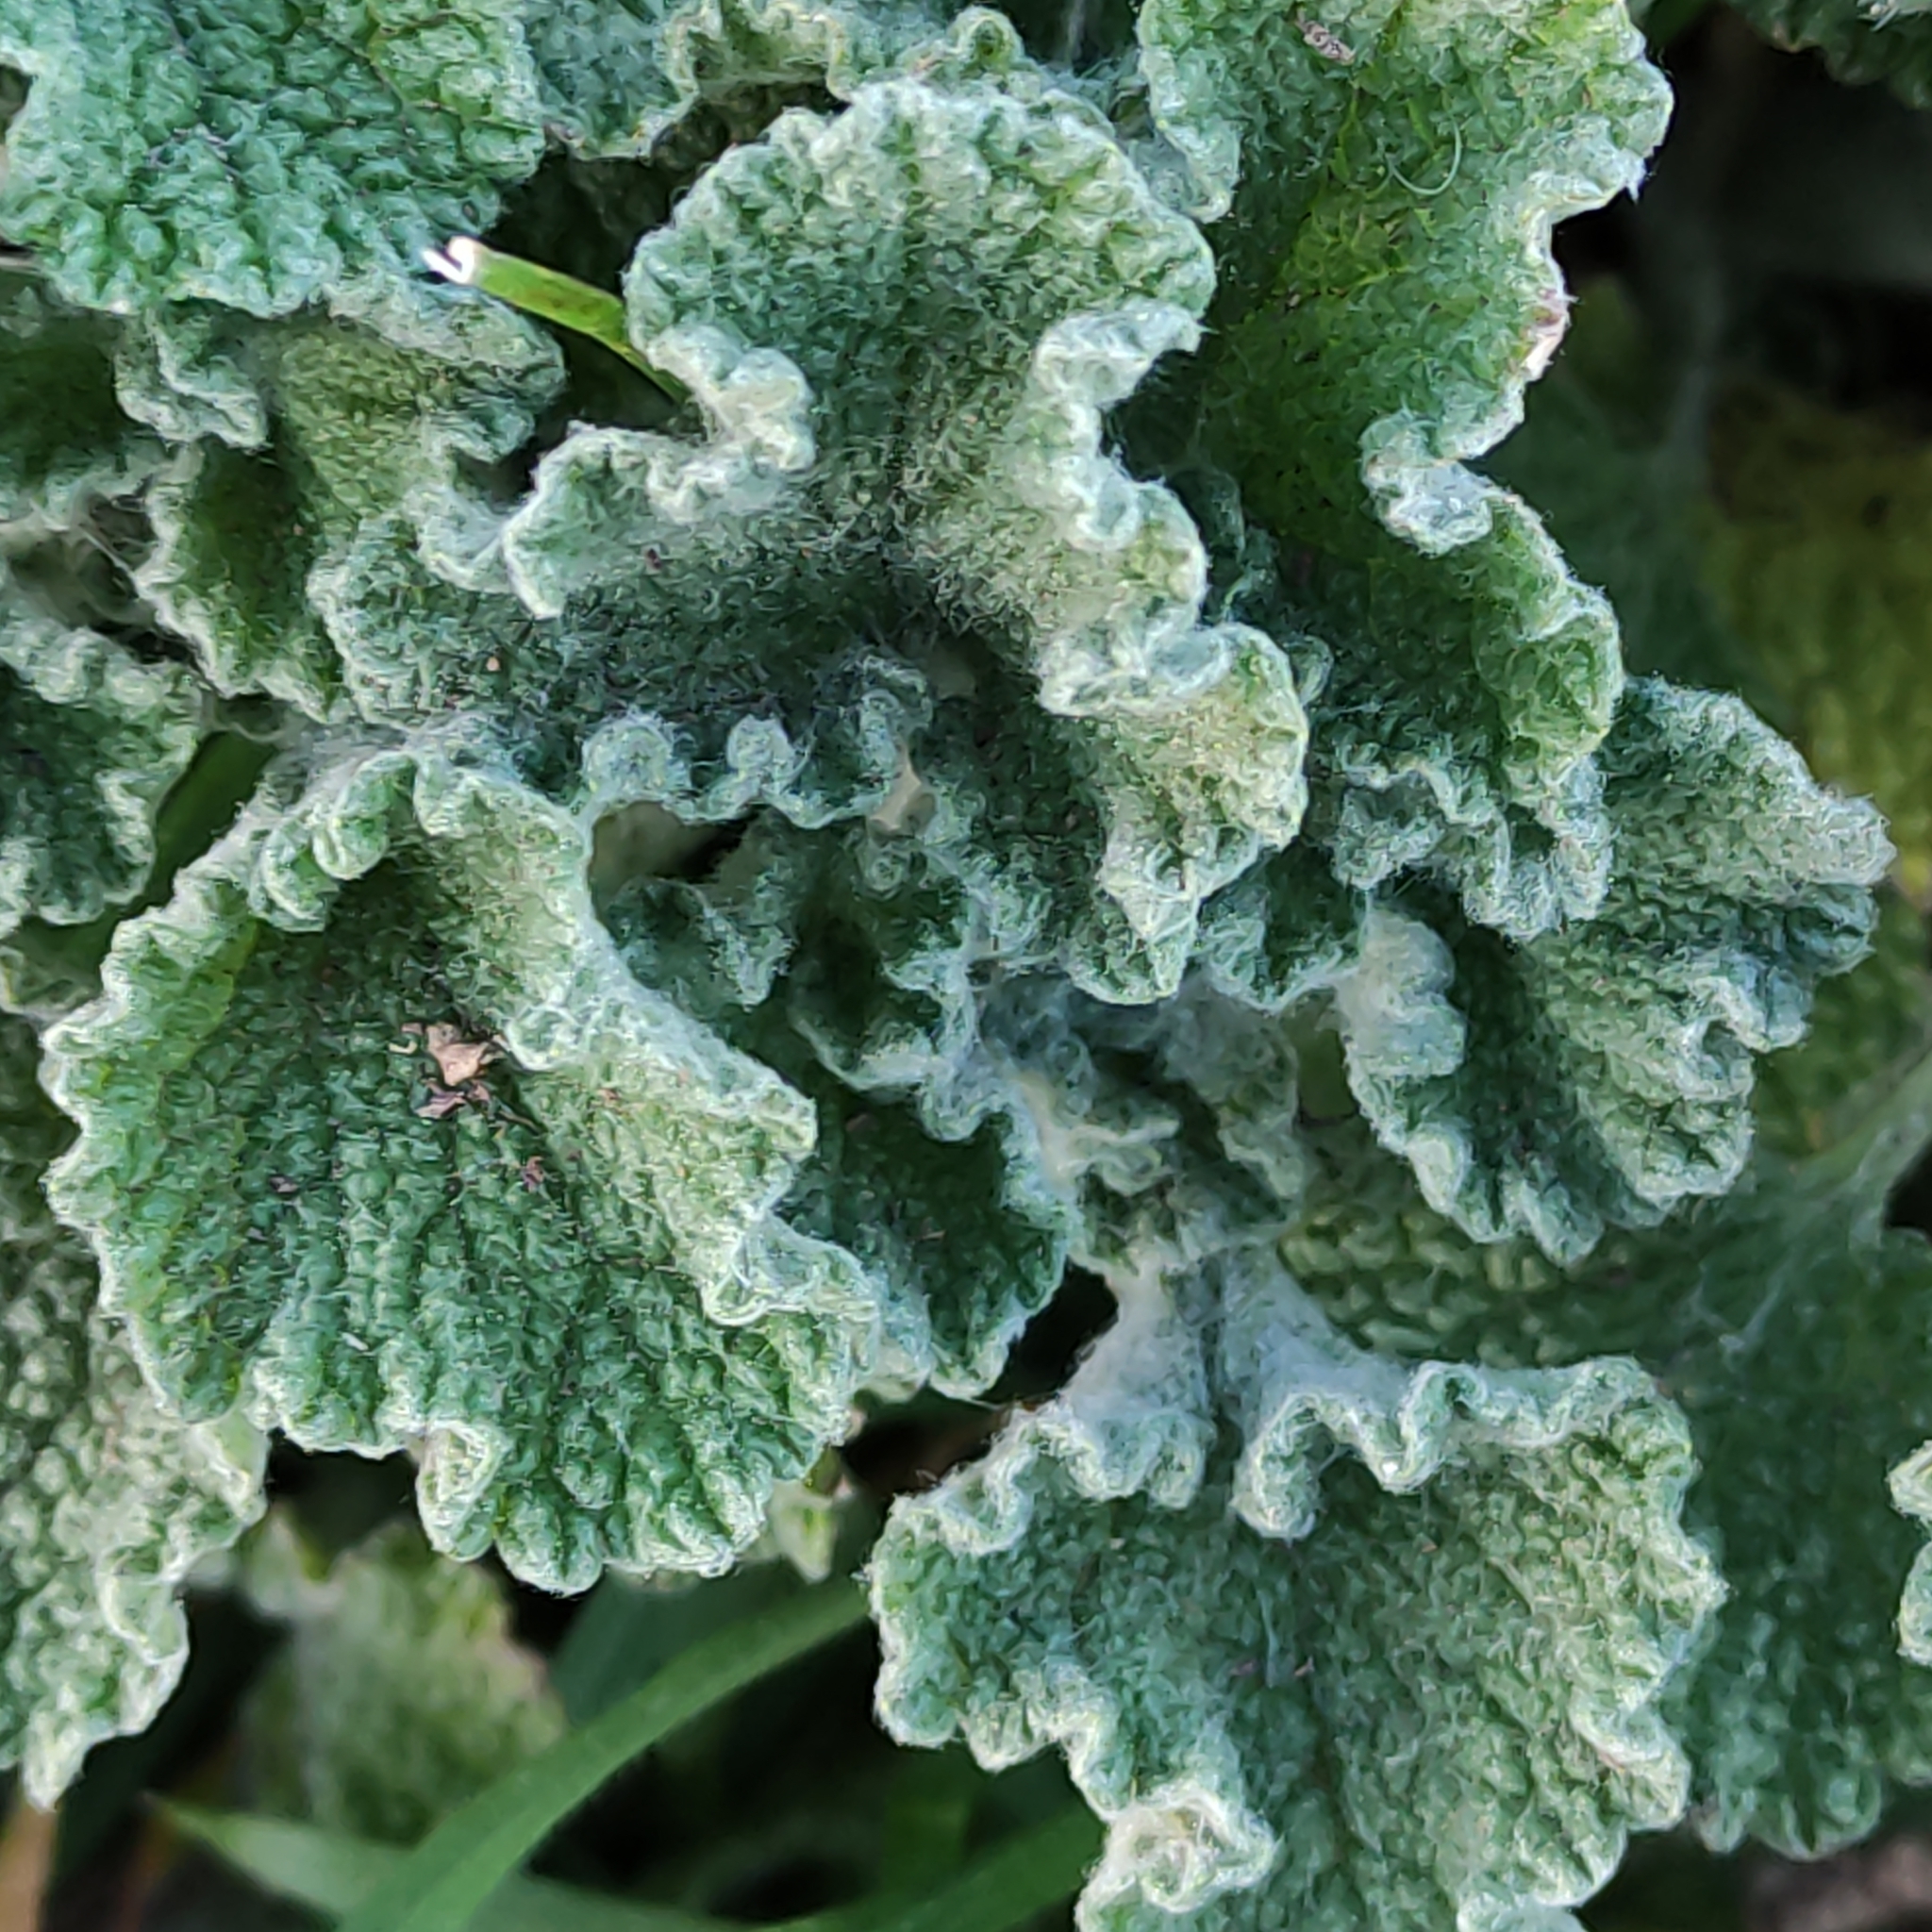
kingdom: Plantae
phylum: Tracheophyta
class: Magnoliopsida
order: Lamiales
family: Lamiaceae
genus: Marrubium
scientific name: Marrubium vulgare
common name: Horehound
